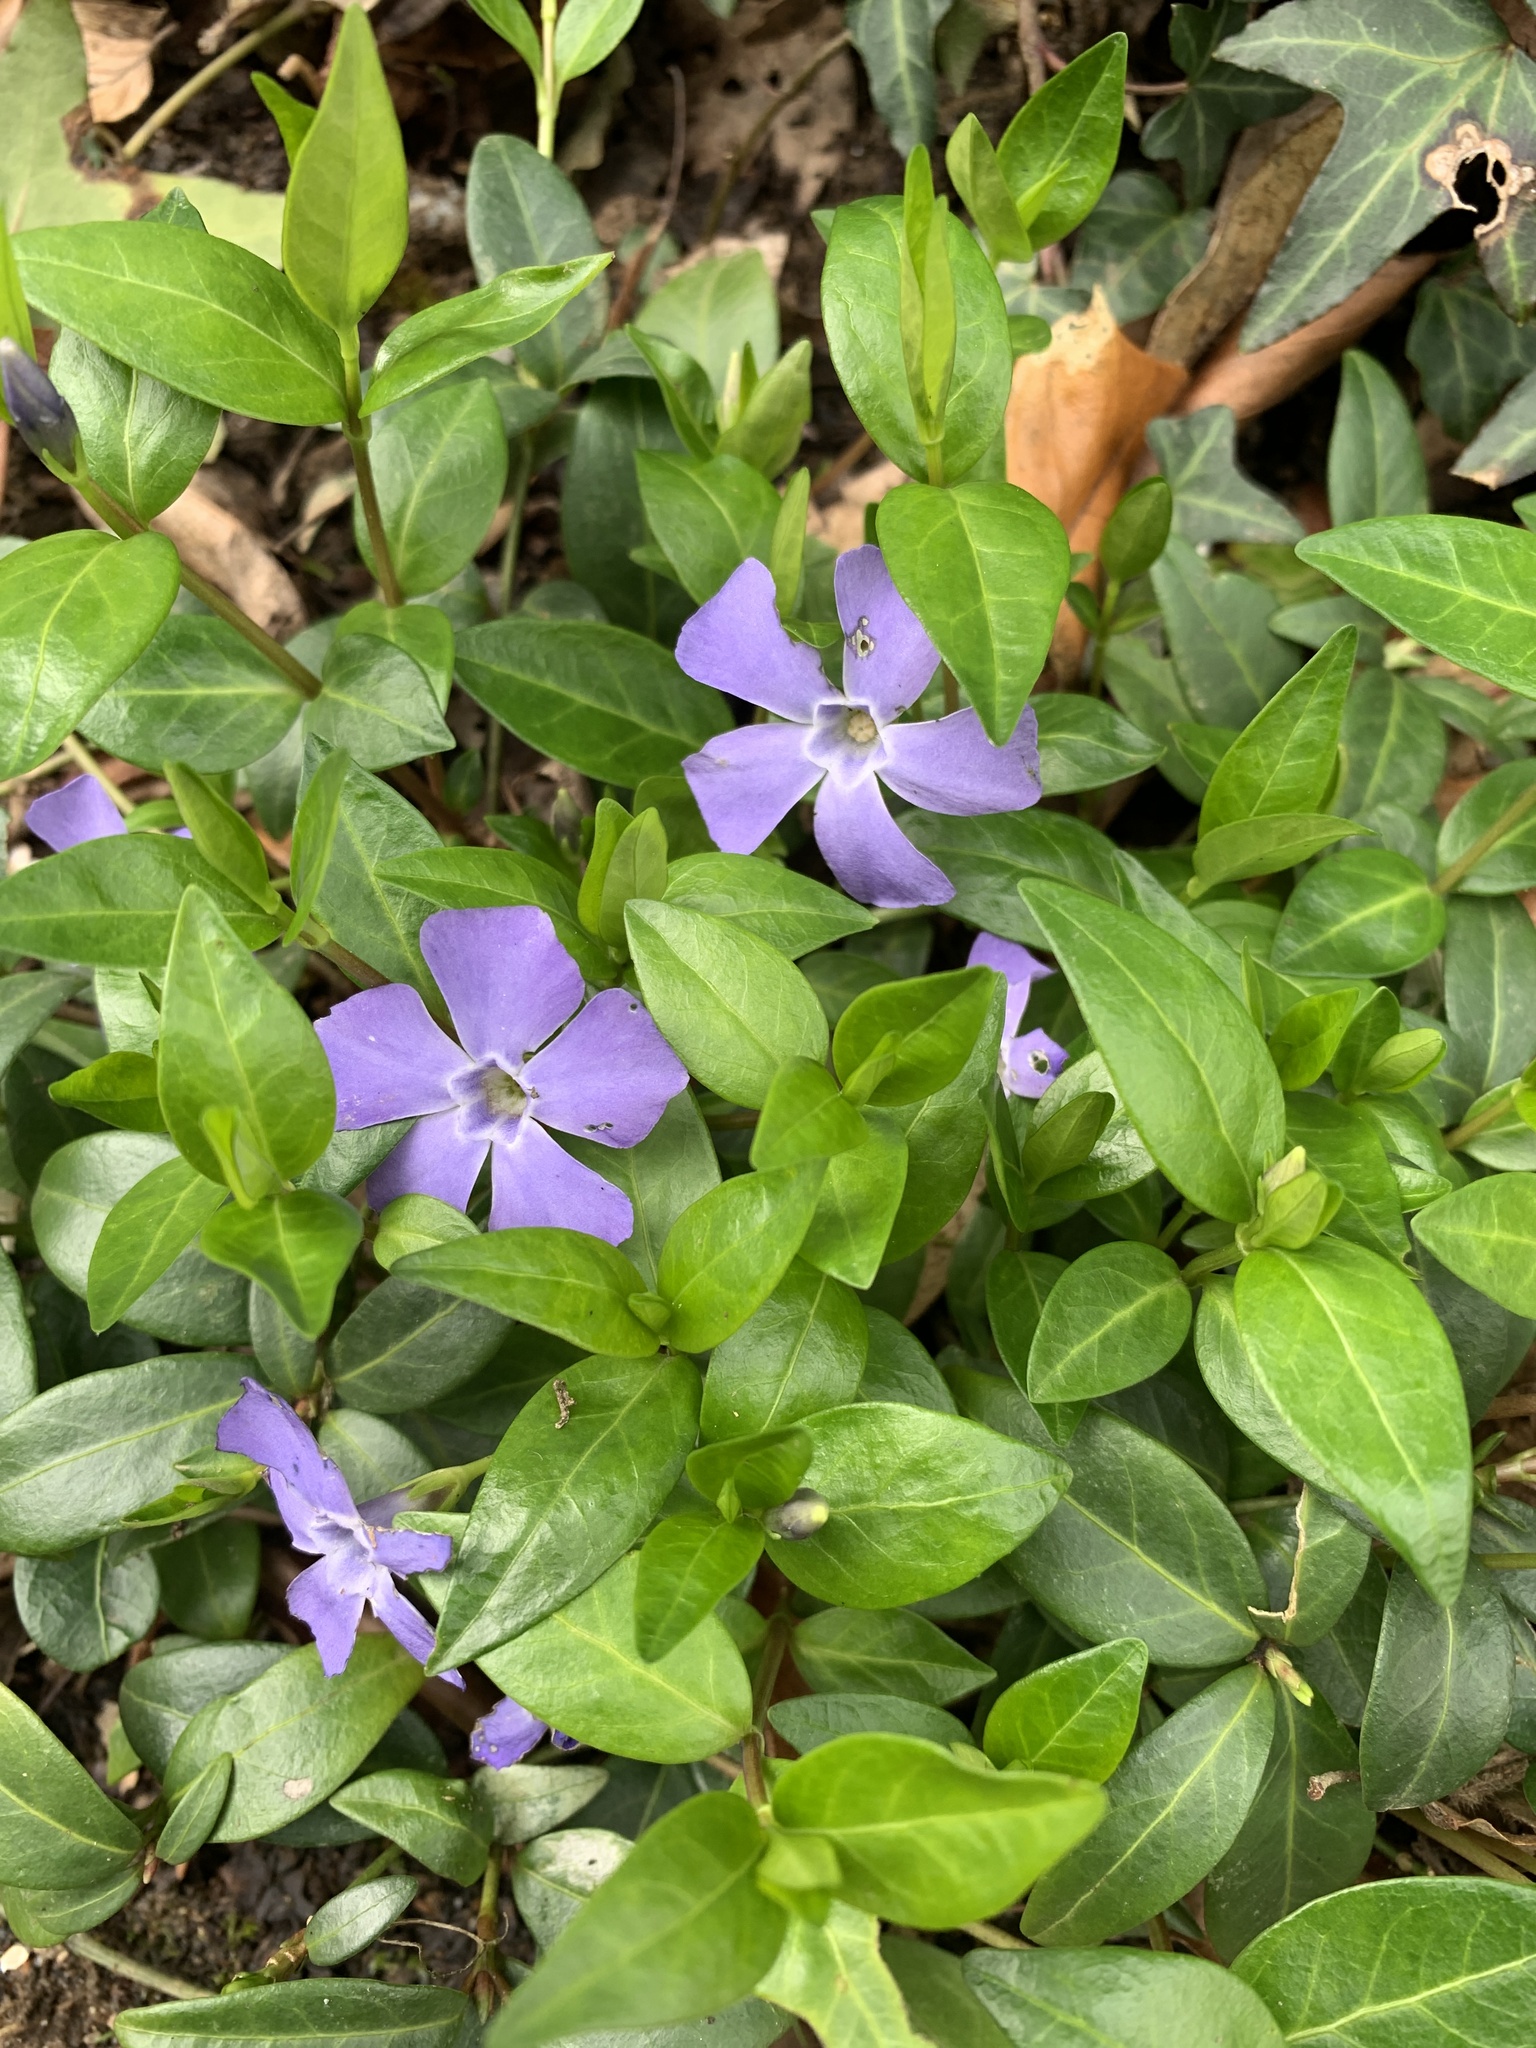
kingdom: Plantae
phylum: Tracheophyta
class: Magnoliopsida
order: Gentianales
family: Apocynaceae
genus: Vinca
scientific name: Vinca minor
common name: Lesser periwinkle
